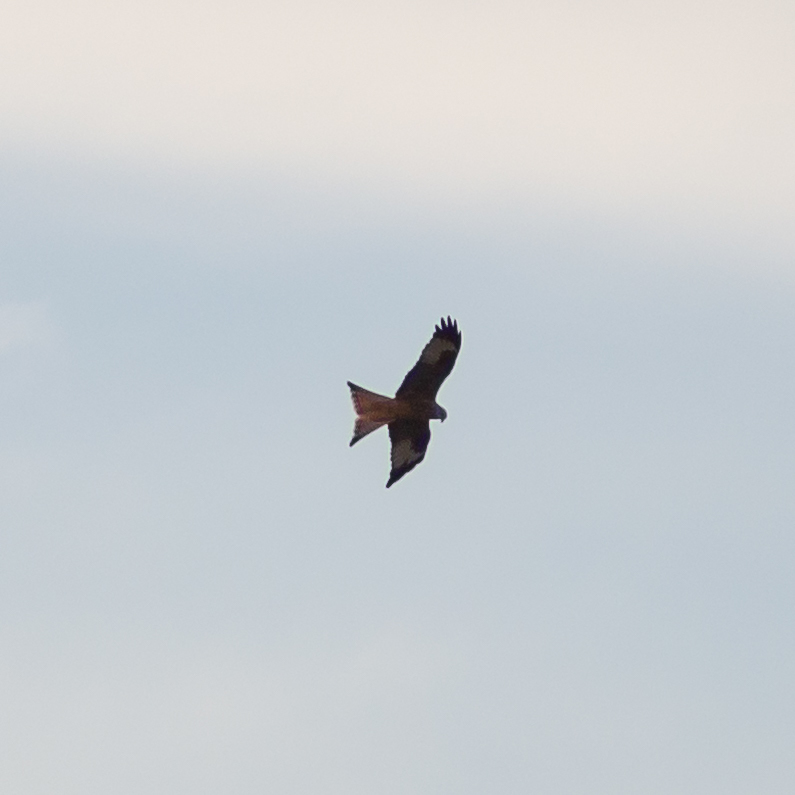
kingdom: Animalia
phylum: Chordata
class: Aves
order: Accipitriformes
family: Accipitridae
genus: Milvus
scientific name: Milvus milvus
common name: Red kite
